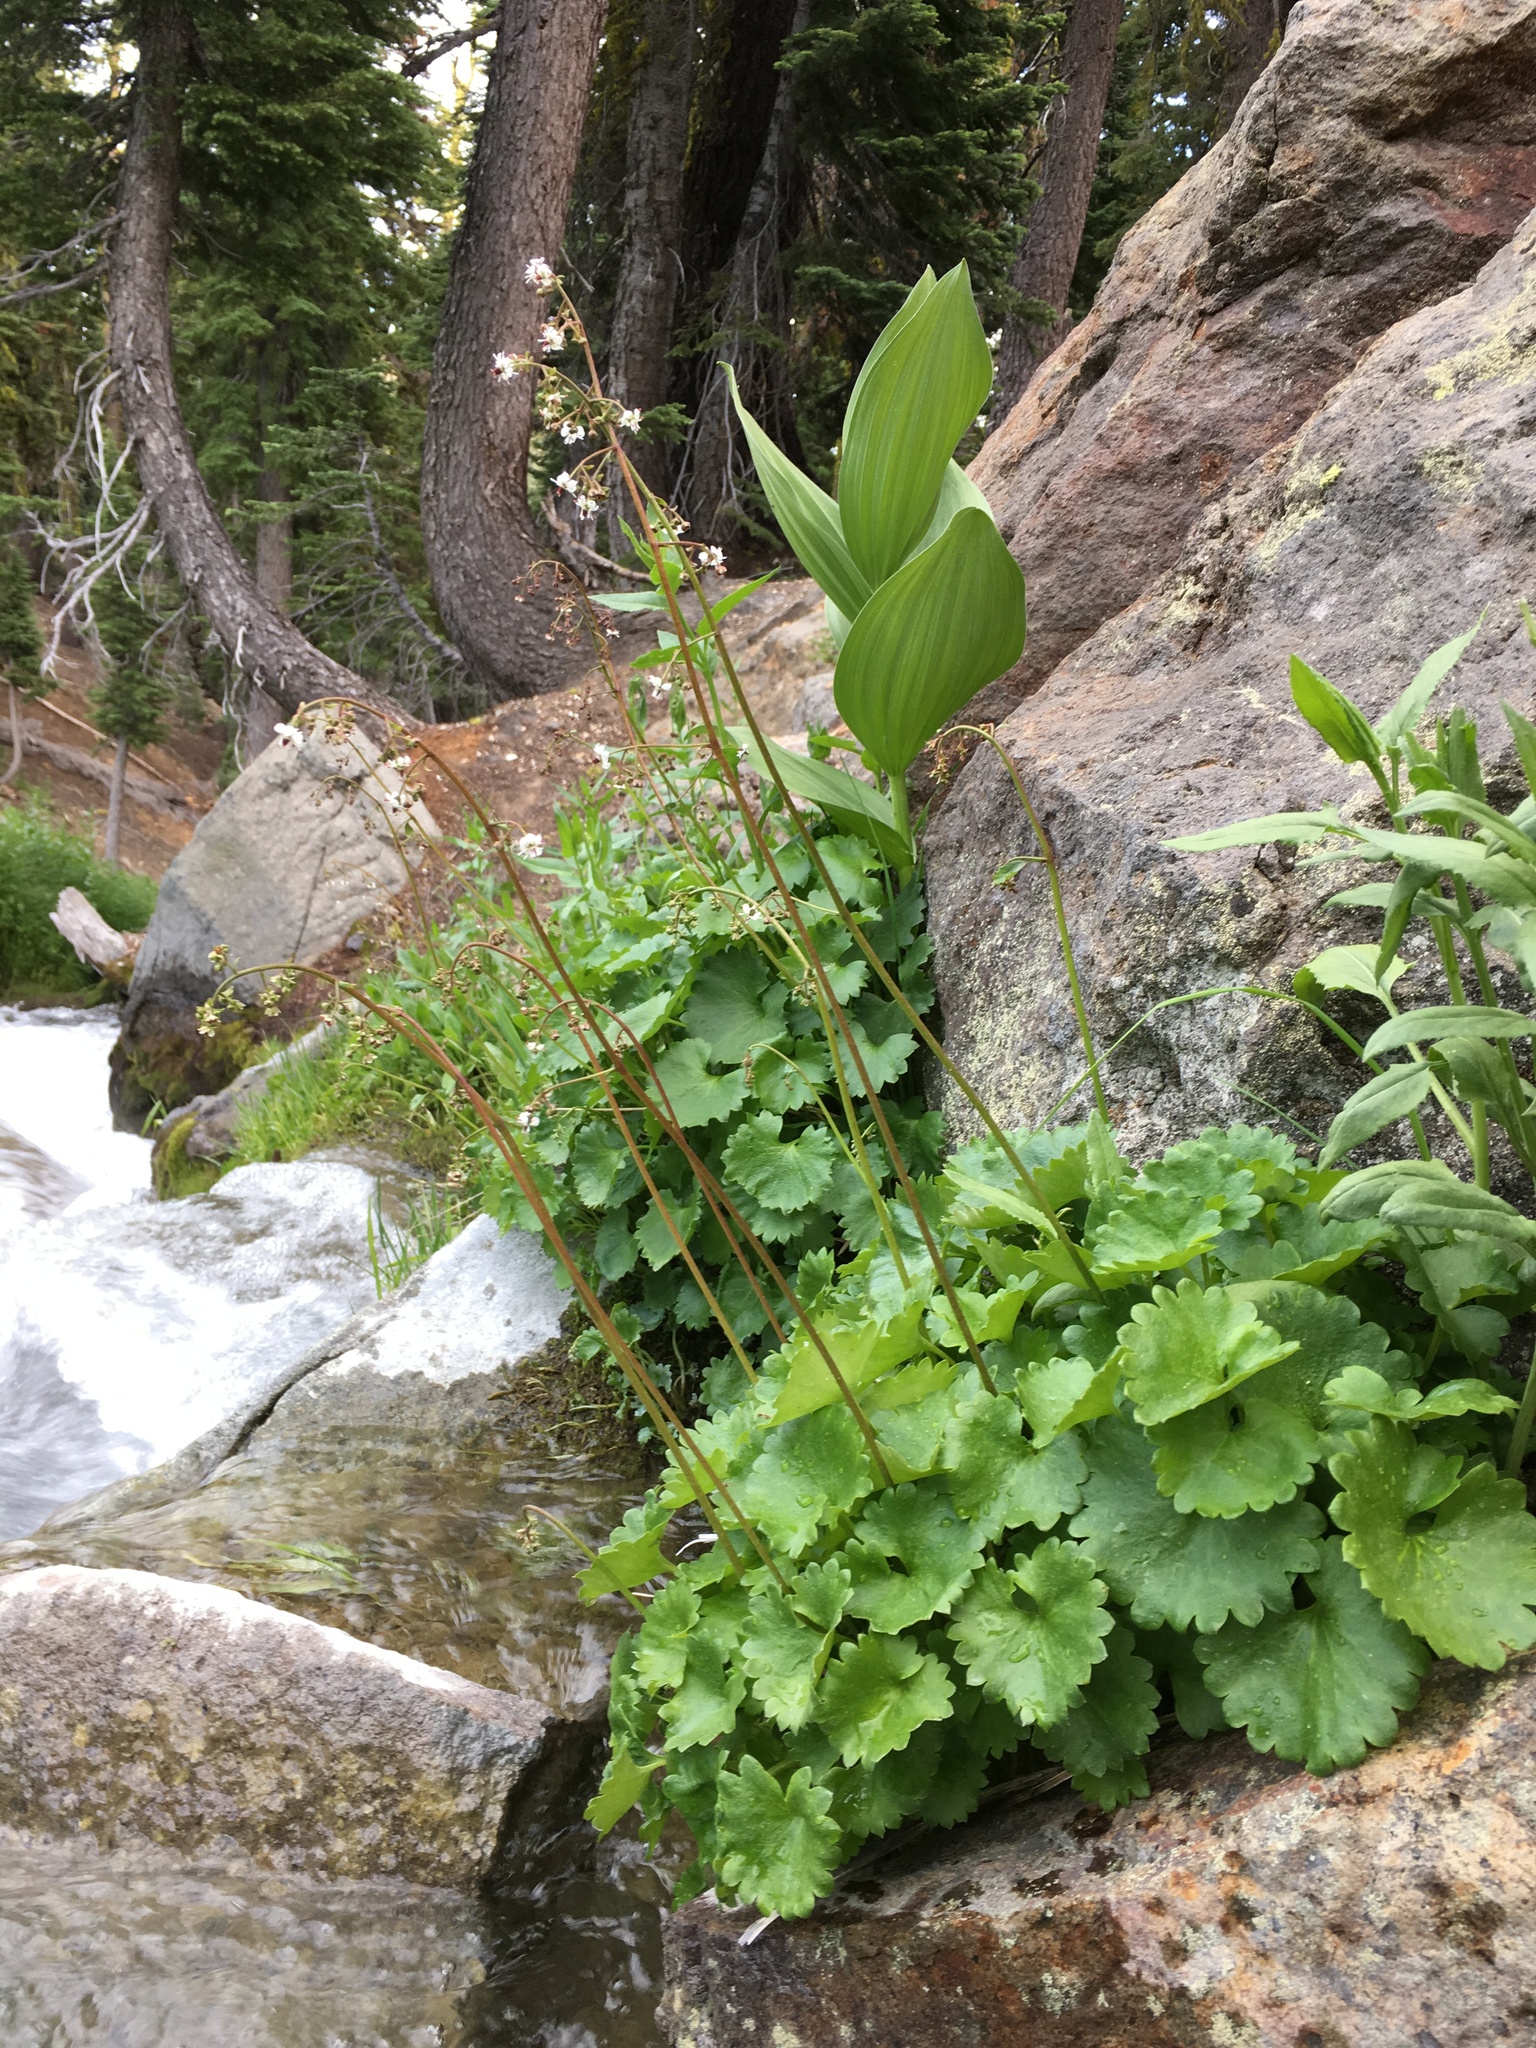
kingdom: Plantae
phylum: Tracheophyta
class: Magnoliopsida
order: Saxifragales
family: Saxifragaceae
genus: Micranthes
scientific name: Micranthes odontoloma
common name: Brook saxifrage
